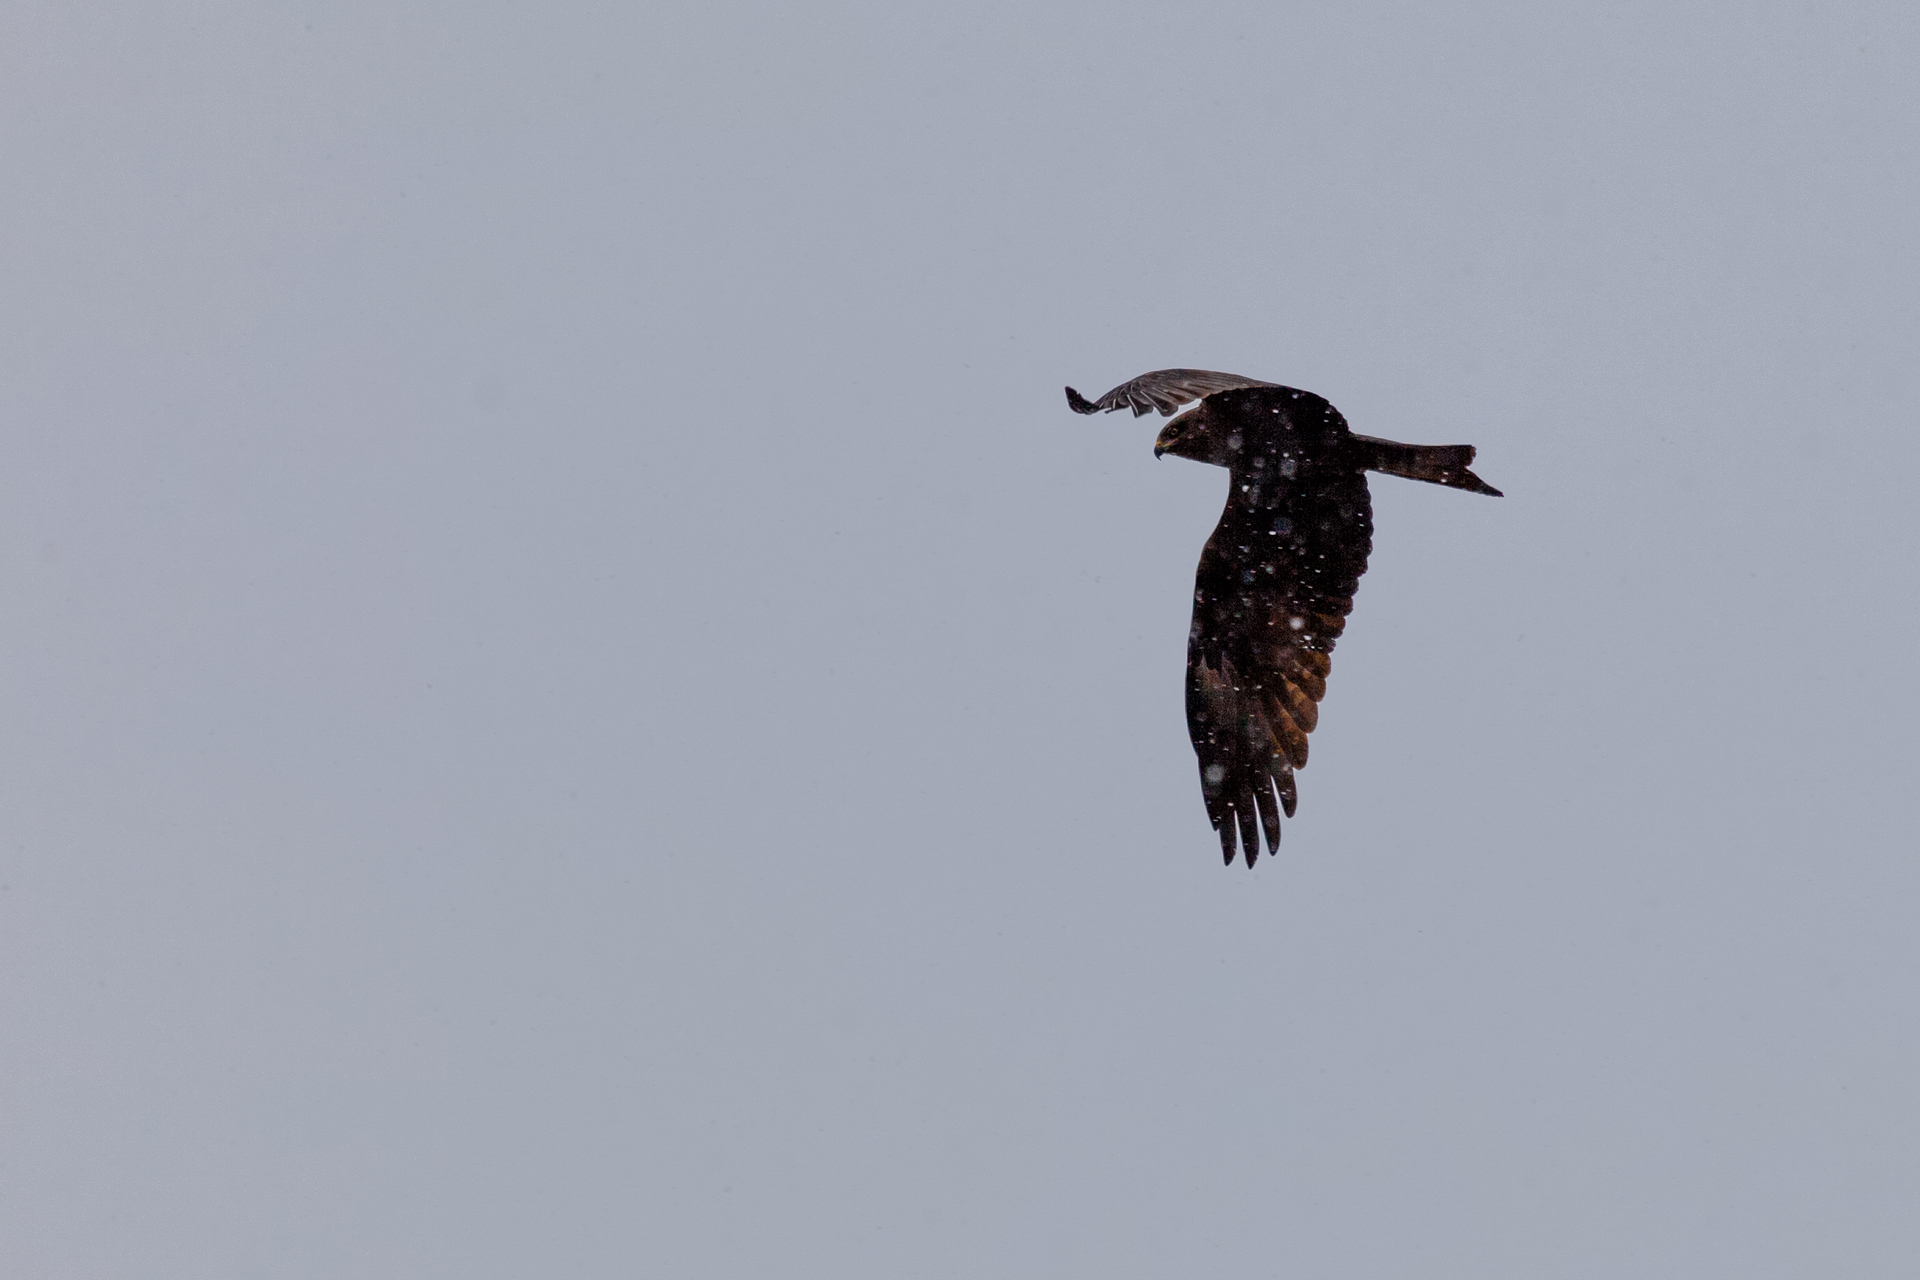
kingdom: Animalia
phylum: Chordata
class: Aves
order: Accipitriformes
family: Accipitridae
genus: Milvus
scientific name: Milvus migrans
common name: Black kite
